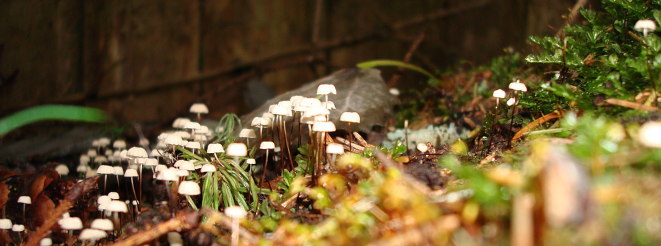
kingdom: Fungi
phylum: Basidiomycota
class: Agaricomycetes
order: Agaricales
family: Marasmiaceae
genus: Marasmius
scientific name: Marasmius rotula
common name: Collared parachute
